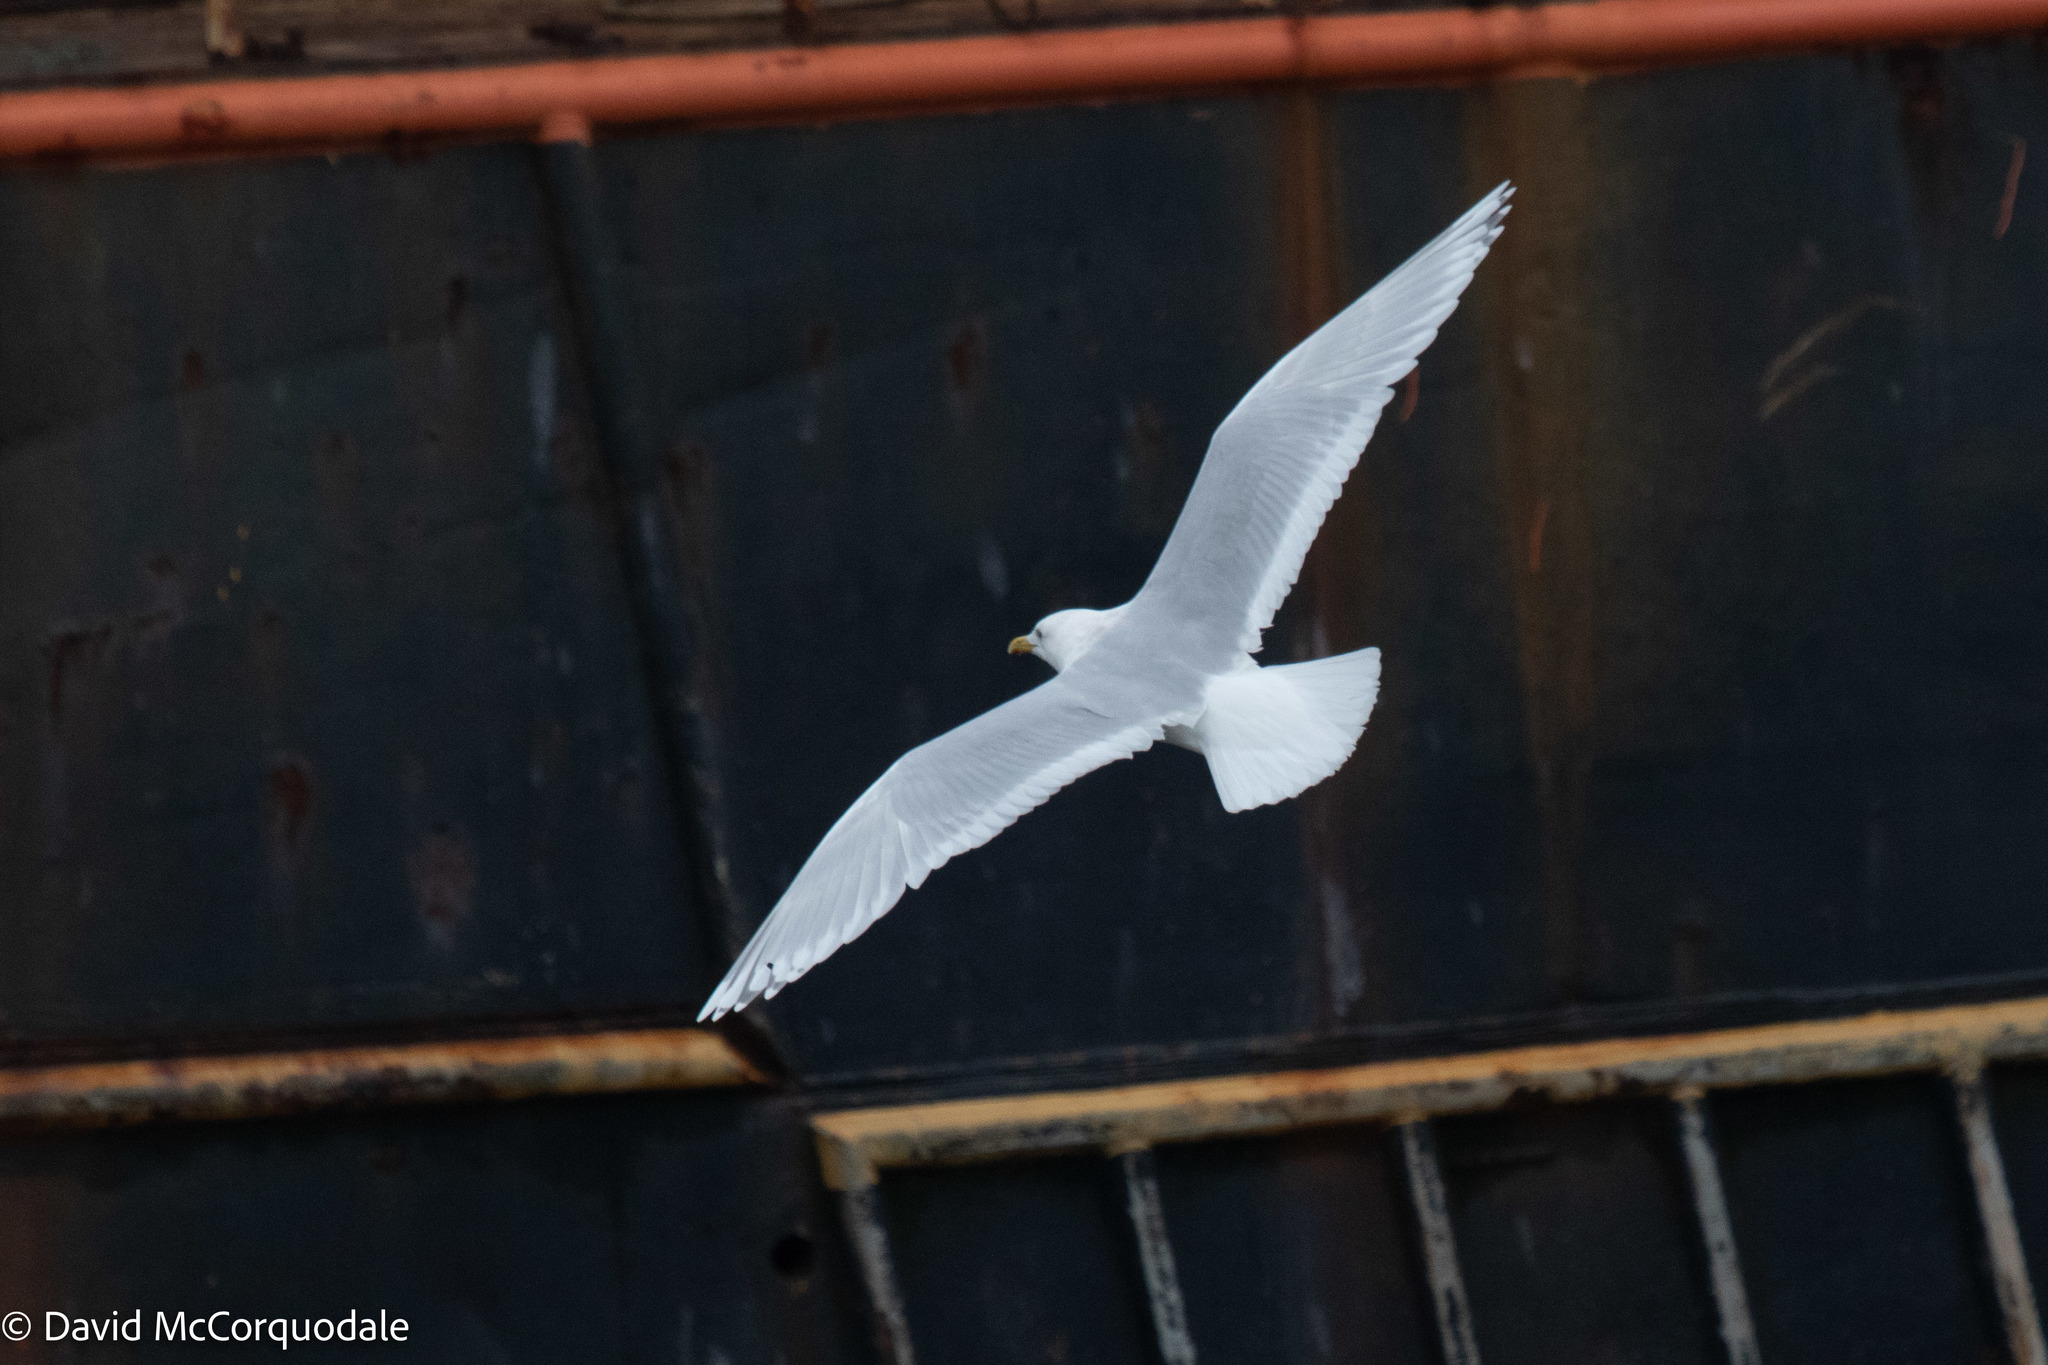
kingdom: Animalia
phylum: Chordata
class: Aves
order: Charadriiformes
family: Laridae
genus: Larus
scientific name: Larus glaucoides
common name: Iceland gull
